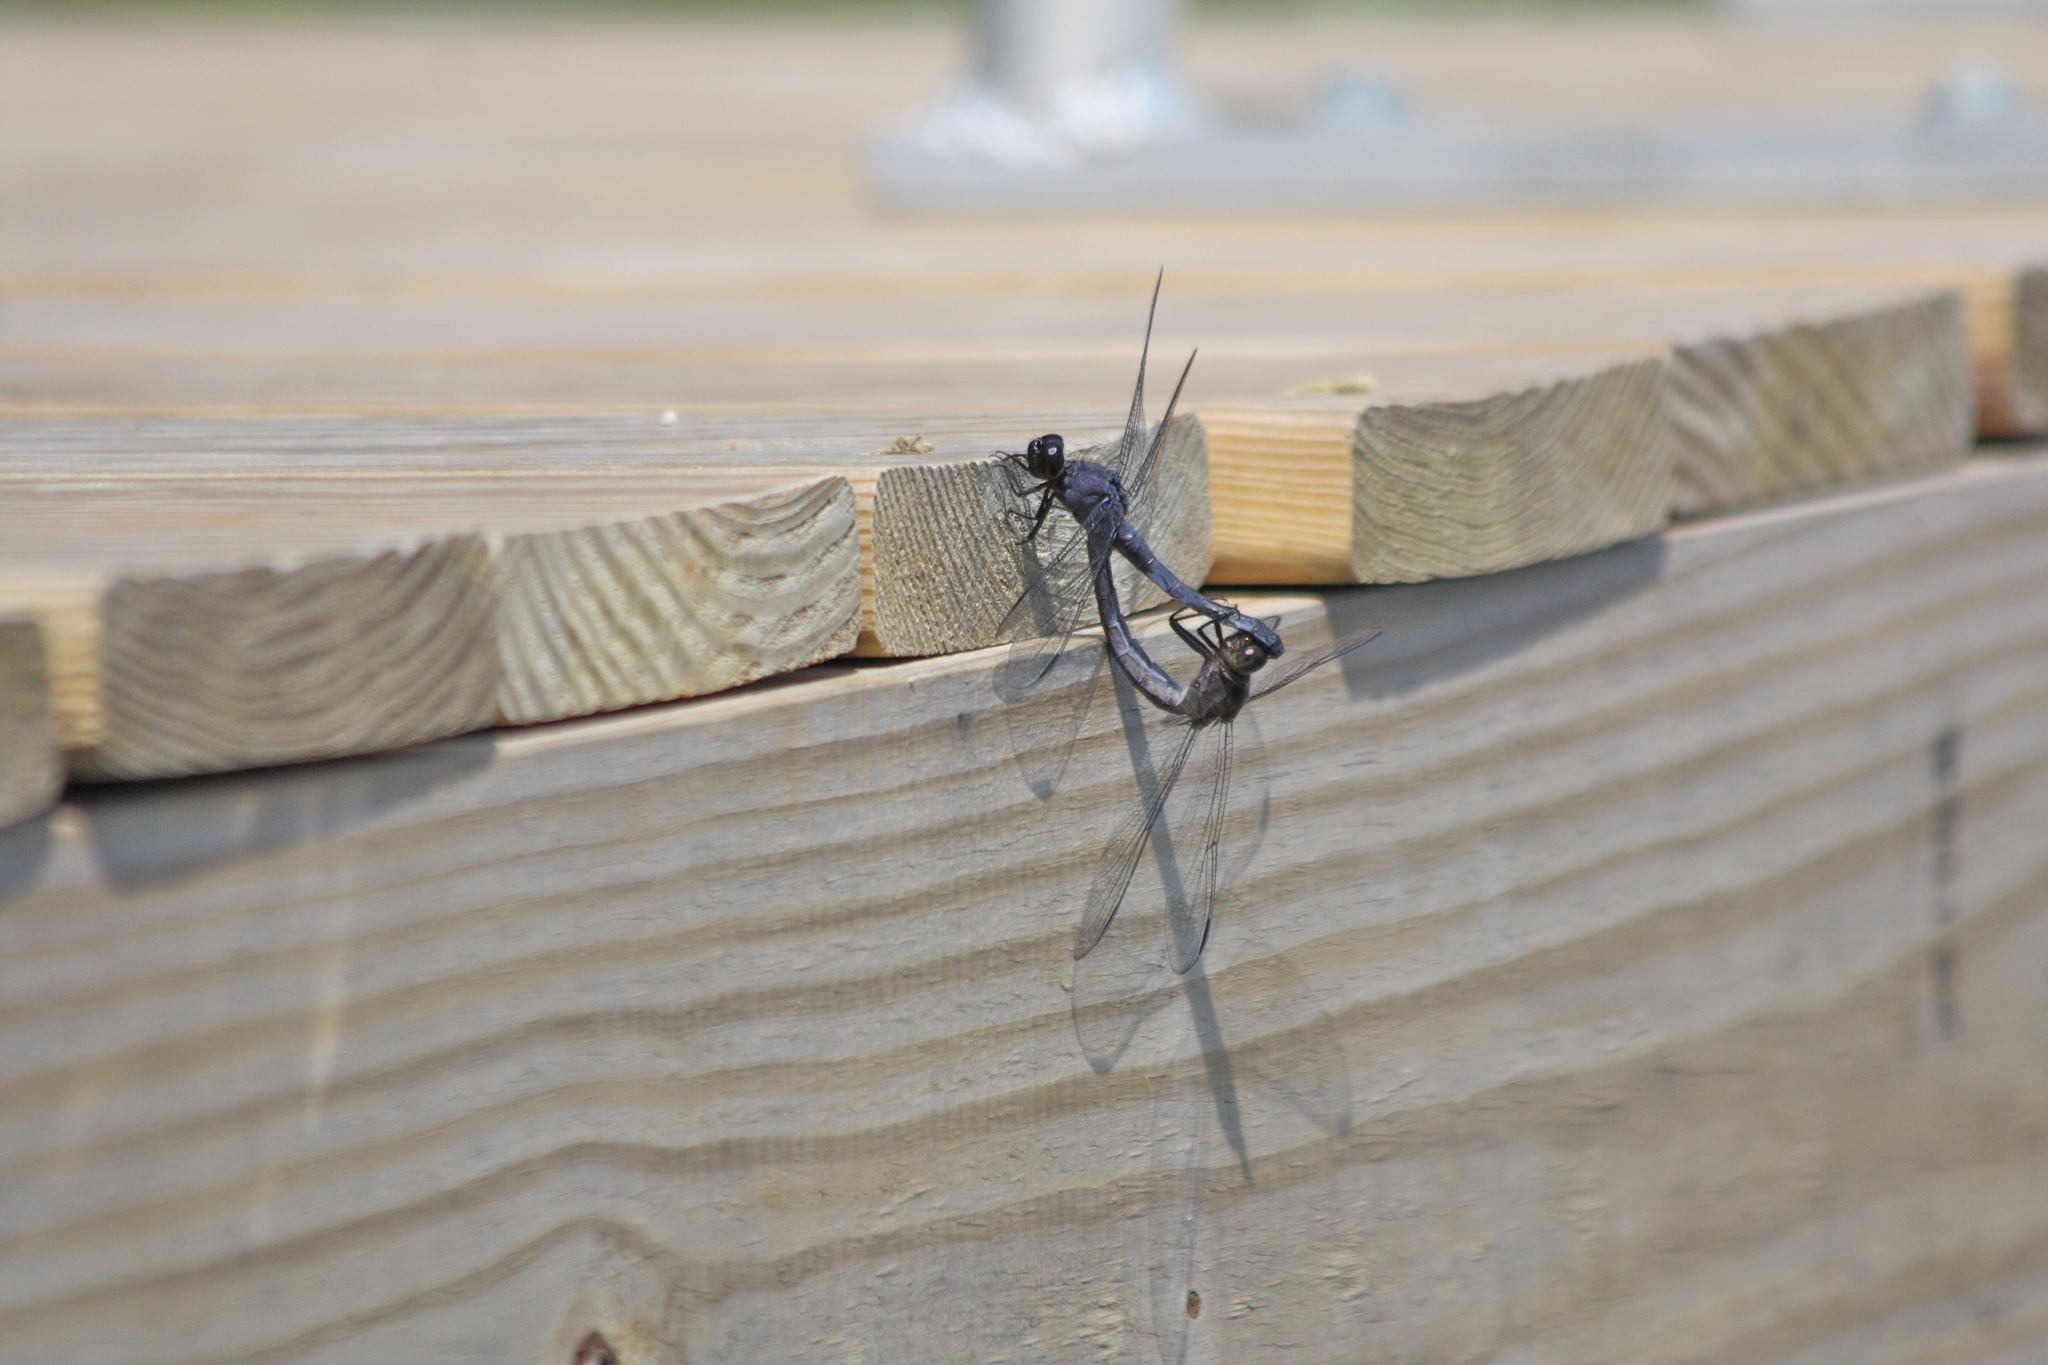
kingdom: Animalia
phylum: Arthropoda
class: Insecta
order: Odonata
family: Libellulidae
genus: Libellula
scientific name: Libellula incesta
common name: Slaty skimmer
